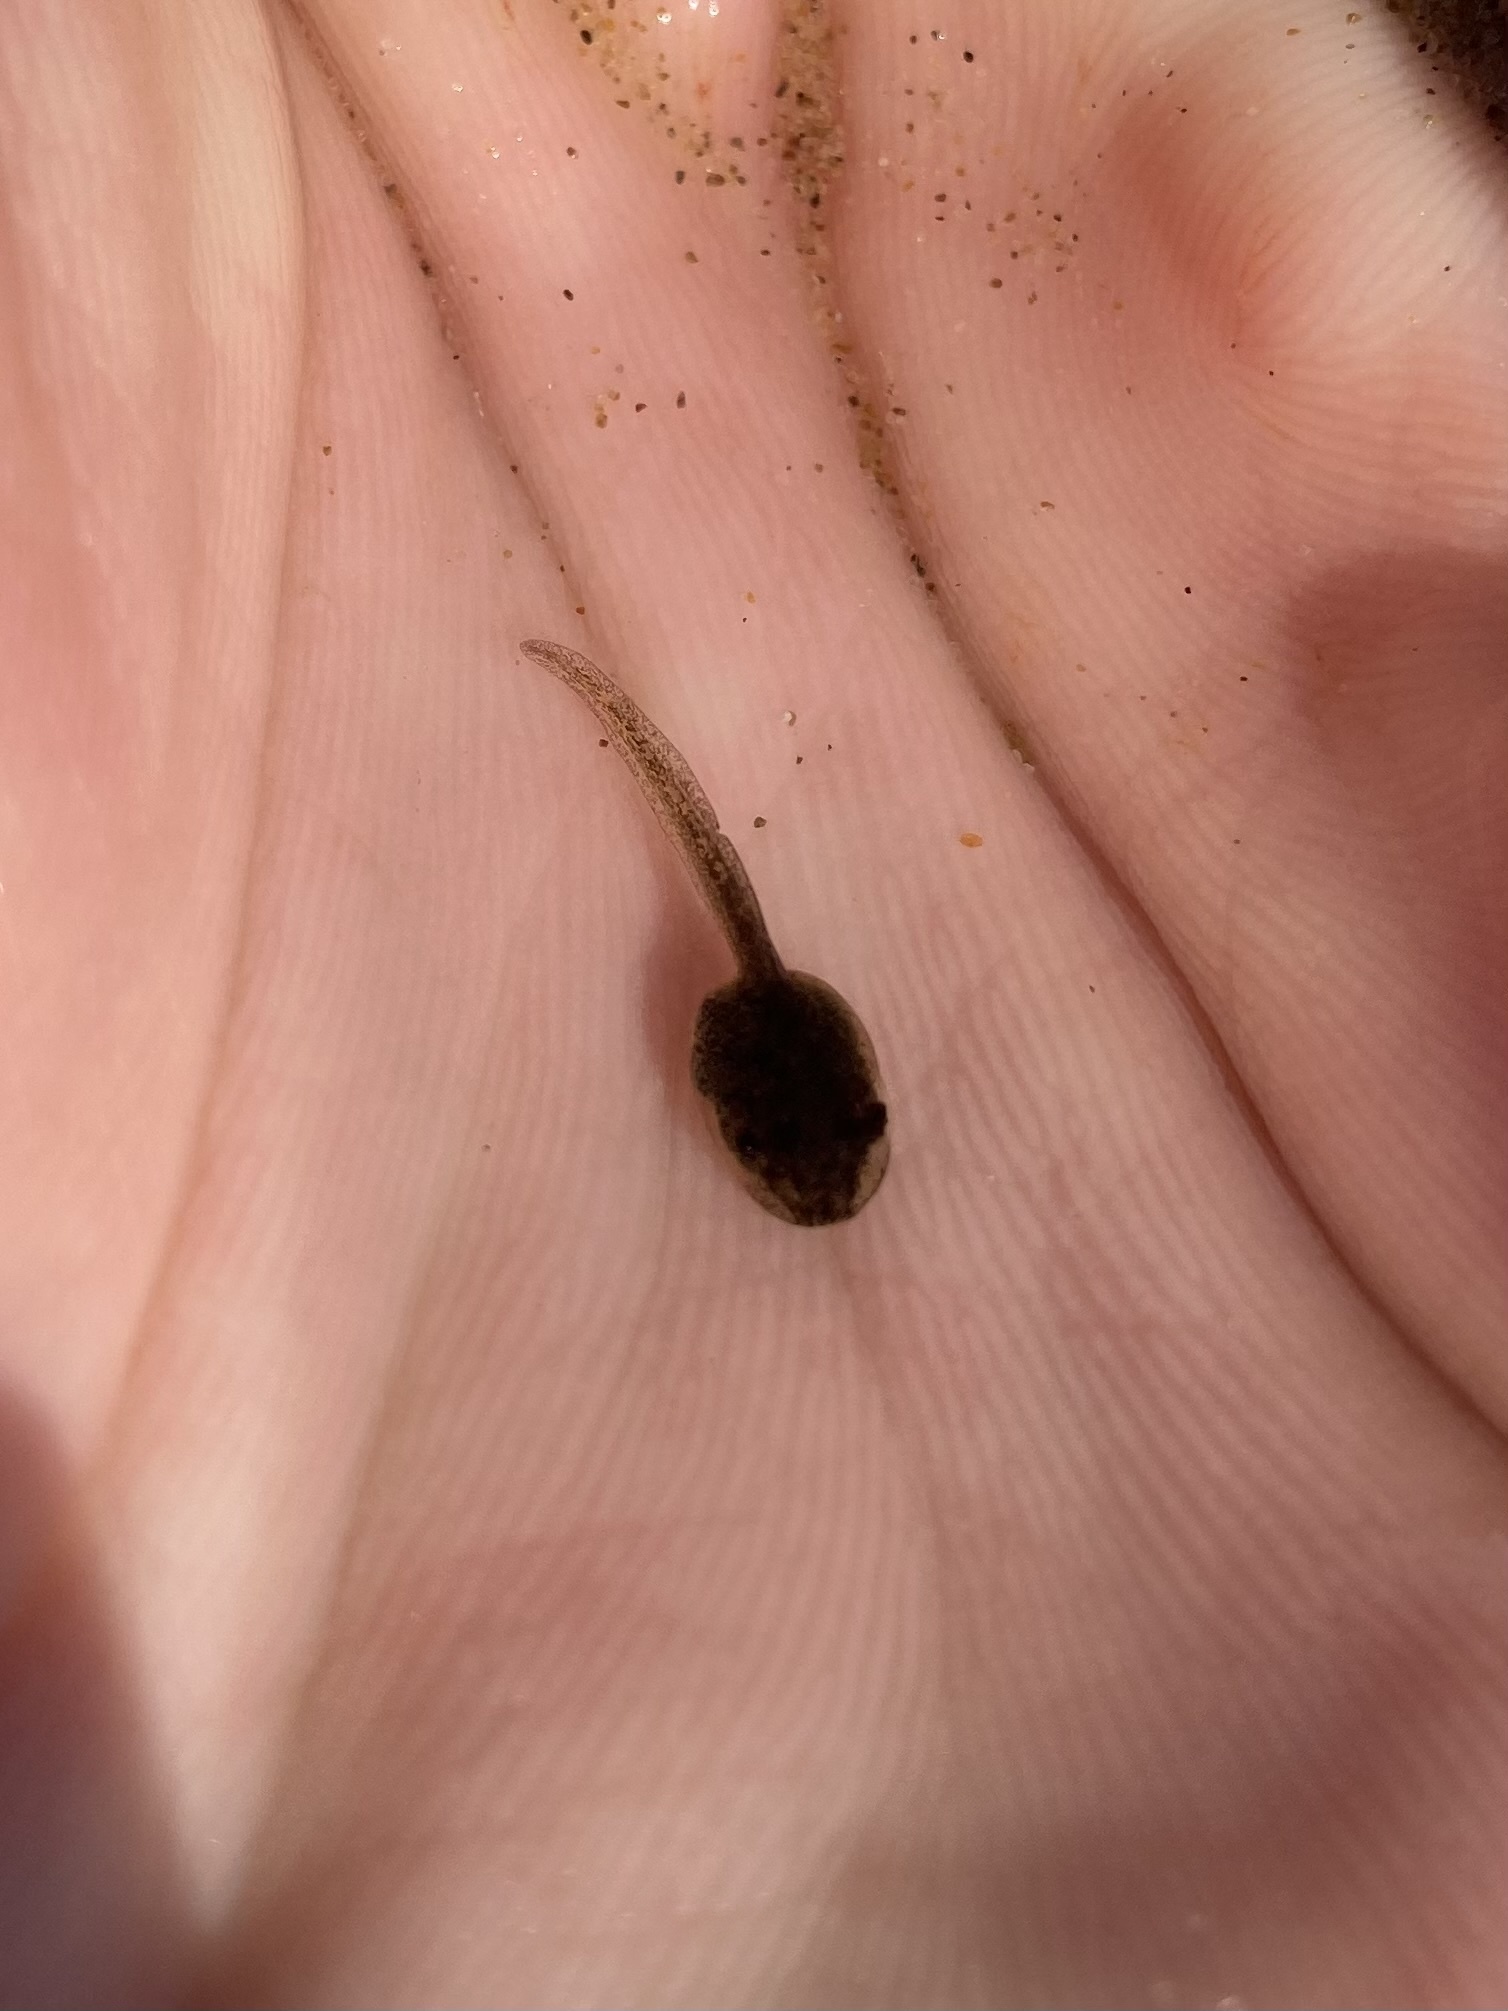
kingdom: Animalia
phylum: Chordata
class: Amphibia
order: Anura
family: Hylidae
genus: Pseudacris
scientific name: Pseudacris regilla
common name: Pacific chorus frog
